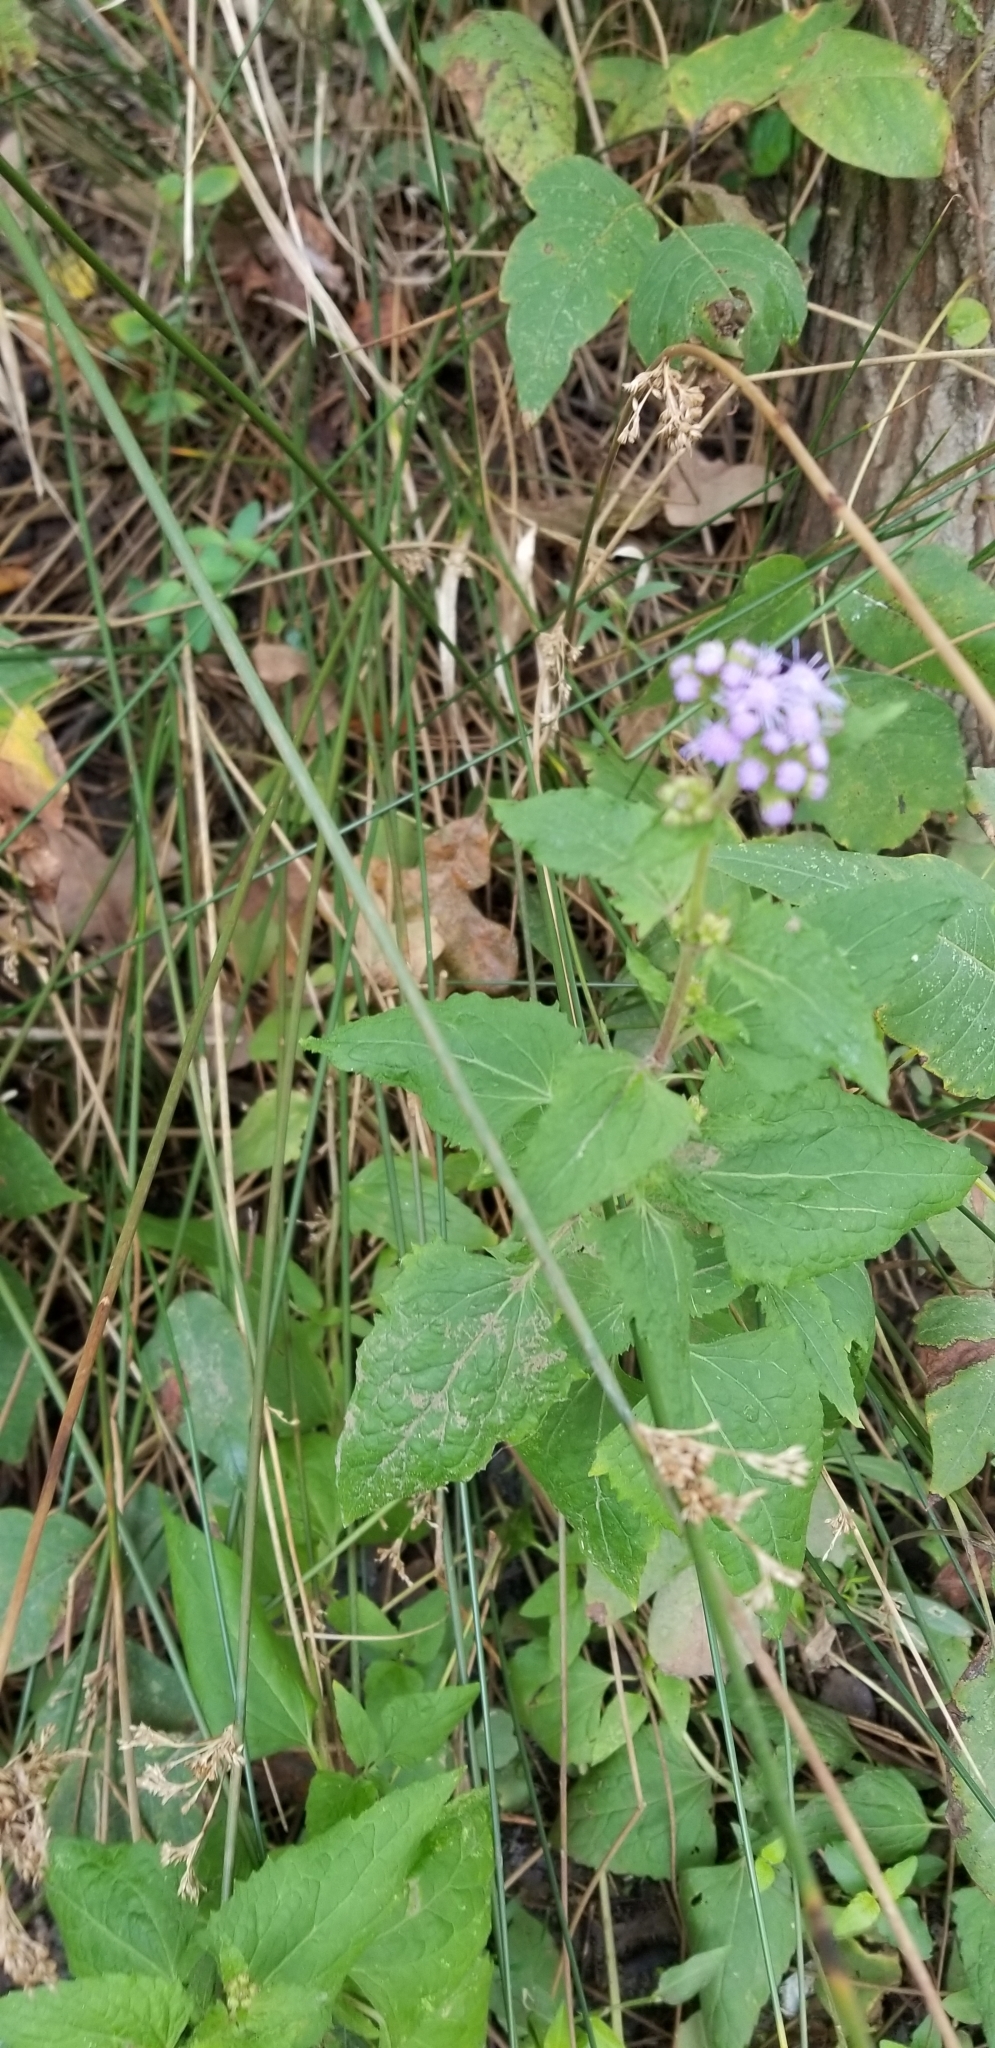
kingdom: Plantae
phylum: Tracheophyta
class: Magnoliopsida
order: Asterales
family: Asteraceae
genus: Conoclinium
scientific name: Conoclinium coelestinum
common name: Blue mistflower
